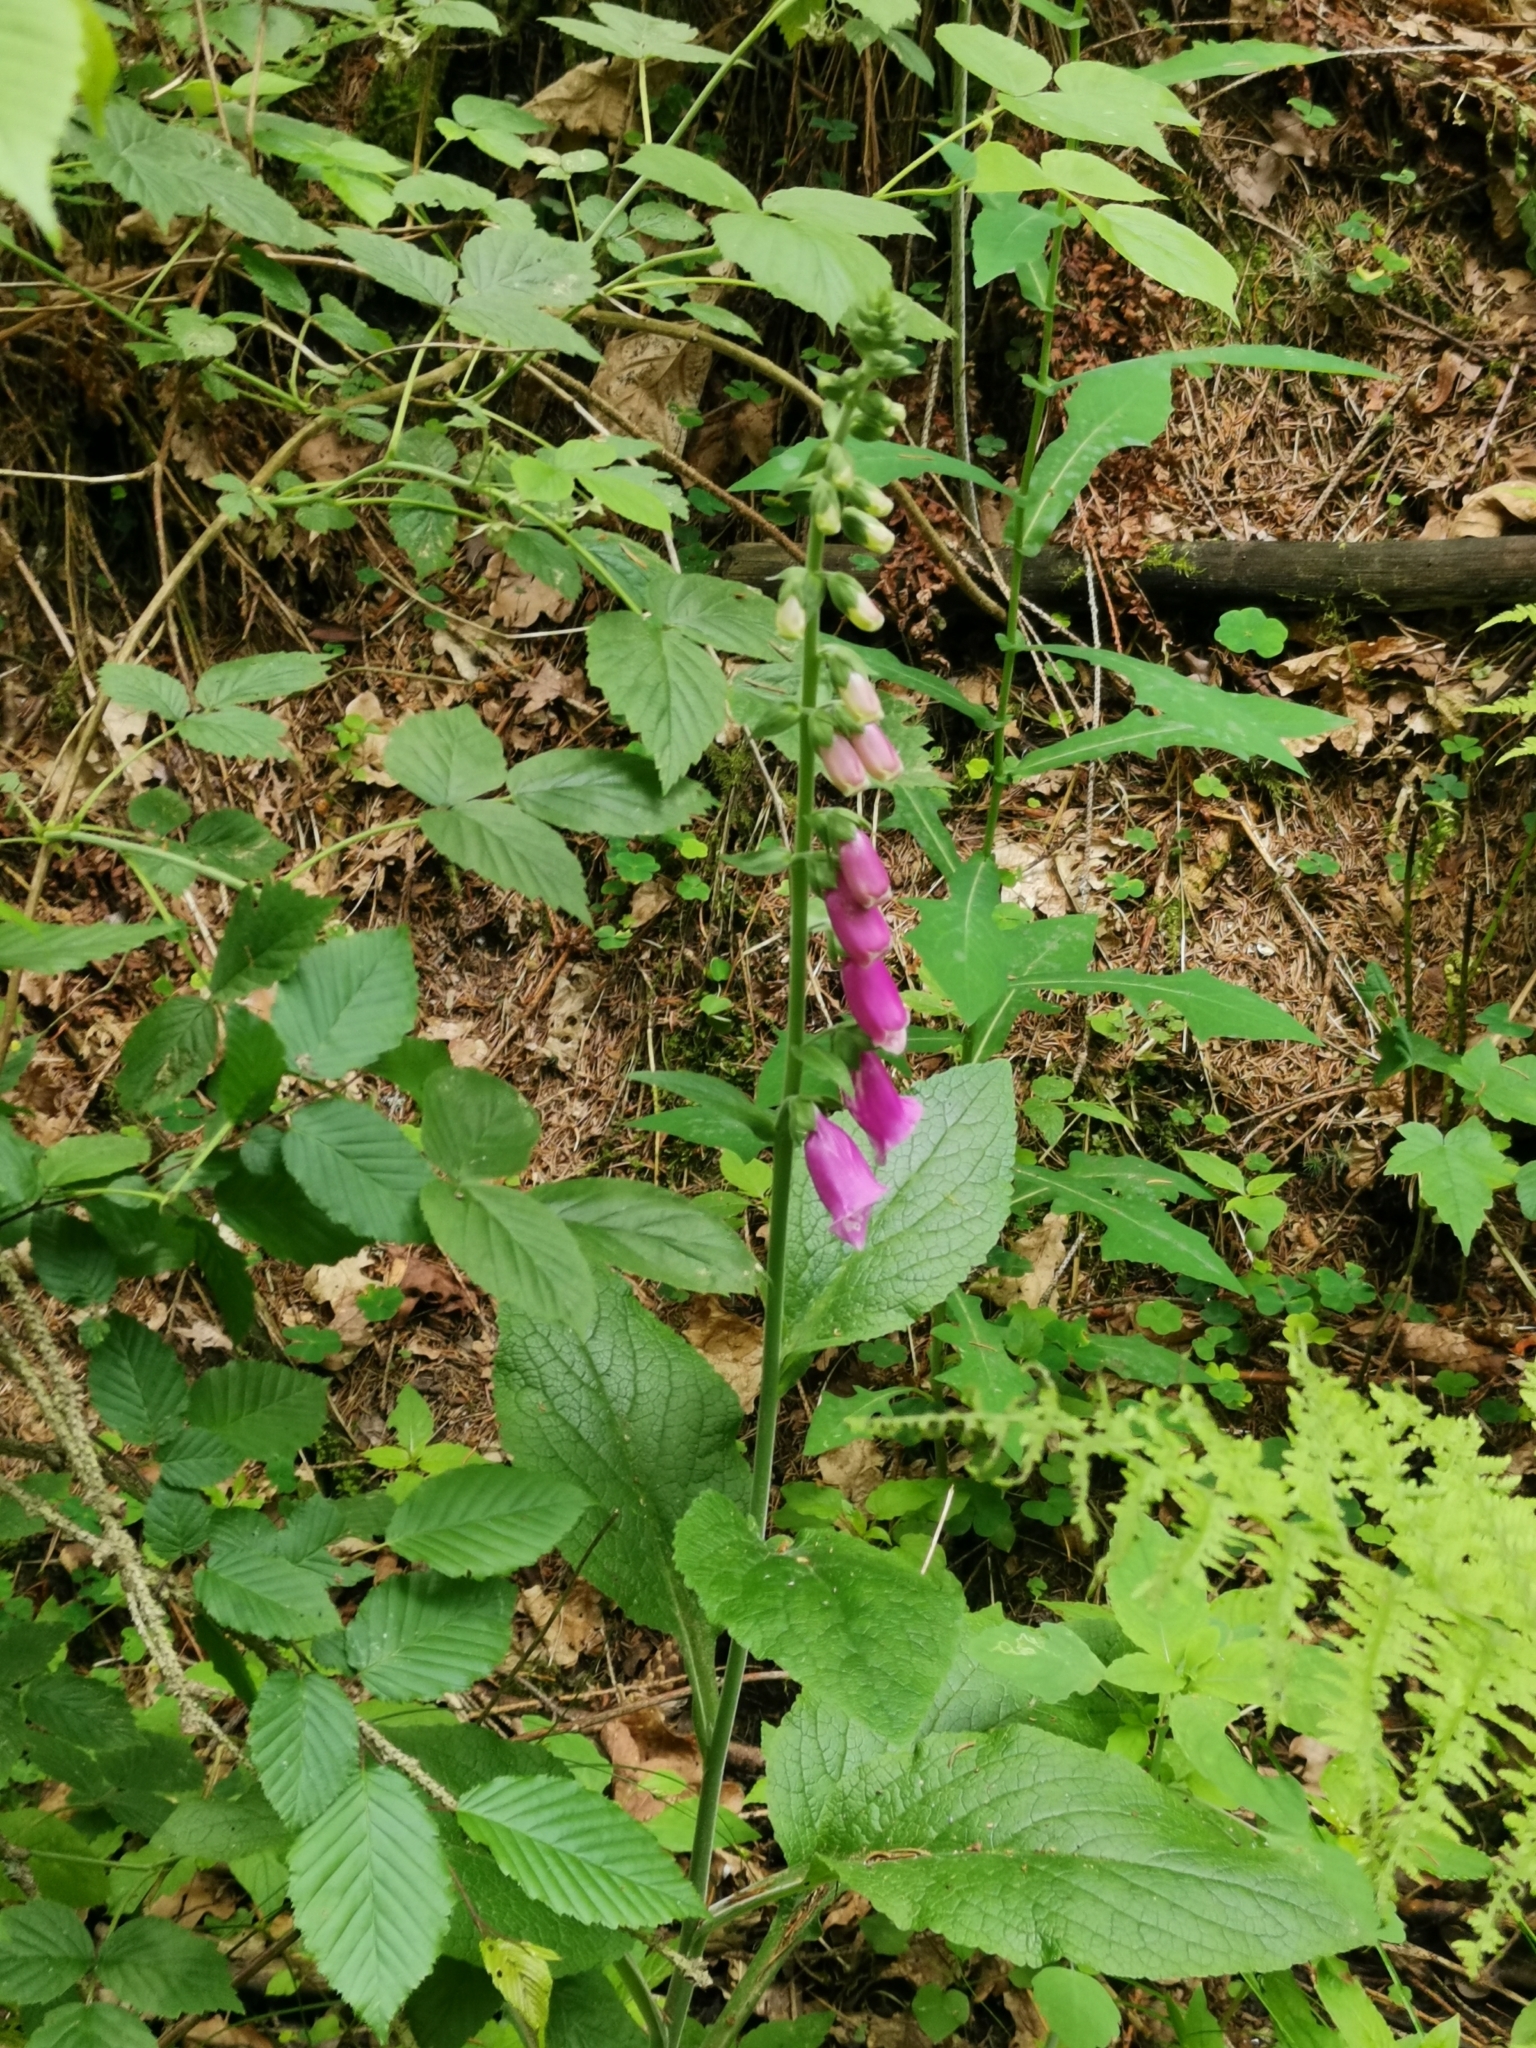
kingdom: Plantae
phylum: Tracheophyta
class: Magnoliopsida
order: Lamiales
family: Plantaginaceae
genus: Digitalis
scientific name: Digitalis purpurea
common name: Foxglove
